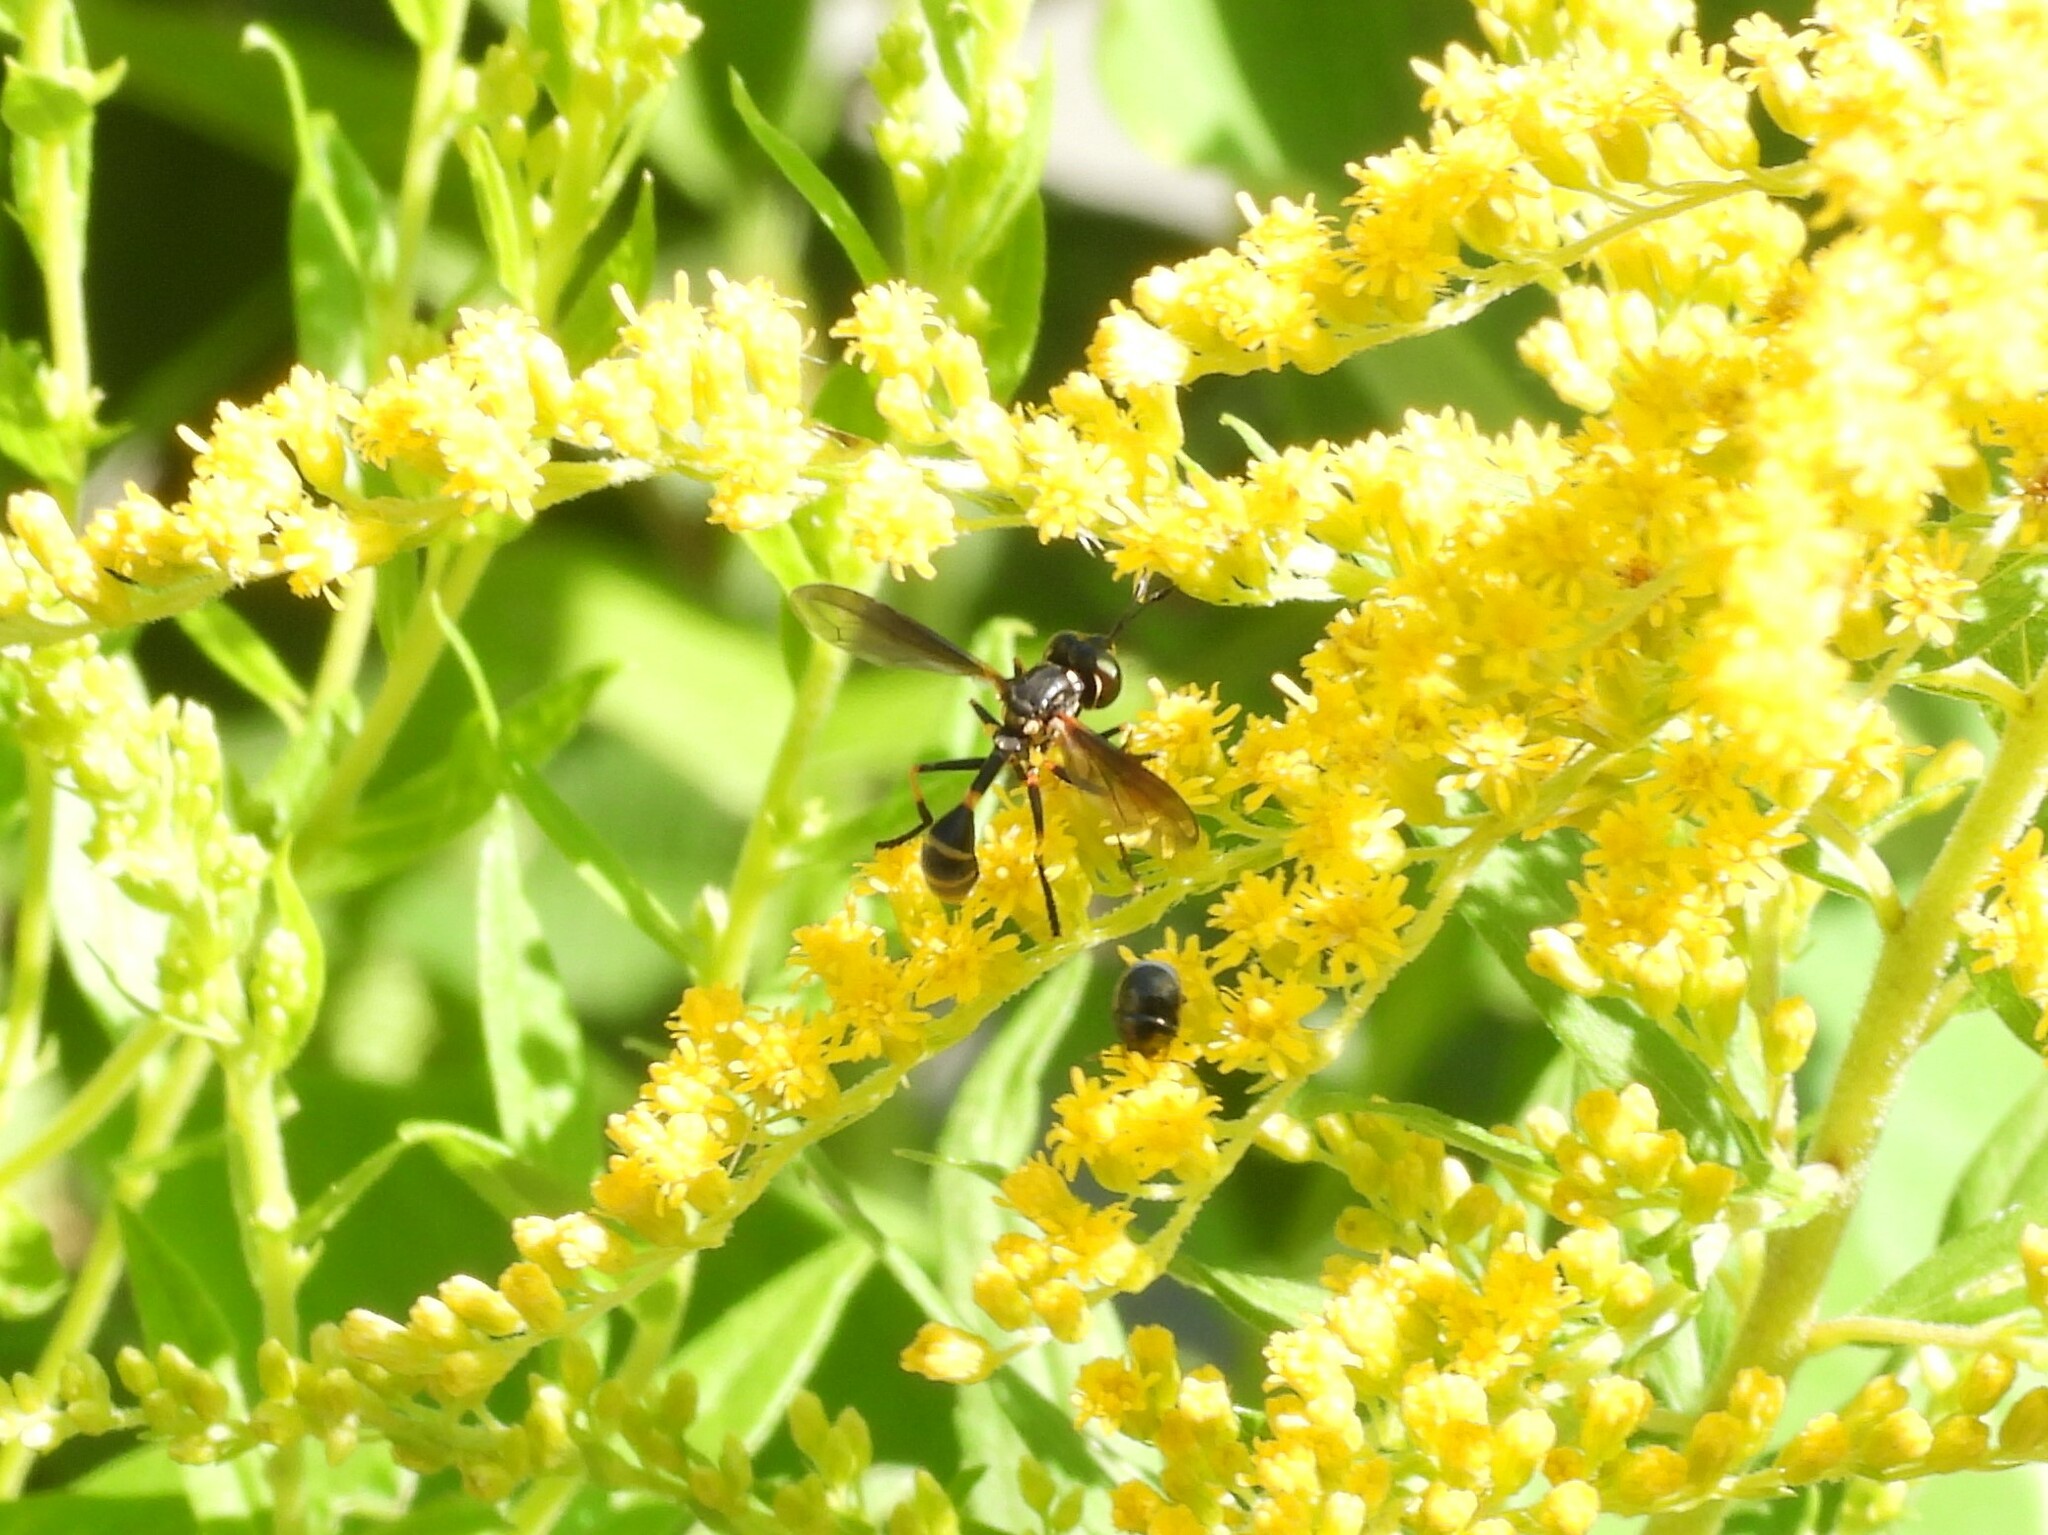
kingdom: Animalia
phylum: Arthropoda
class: Insecta
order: Diptera
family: Conopidae
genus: Physoconops
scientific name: Physoconops obscuripennis
